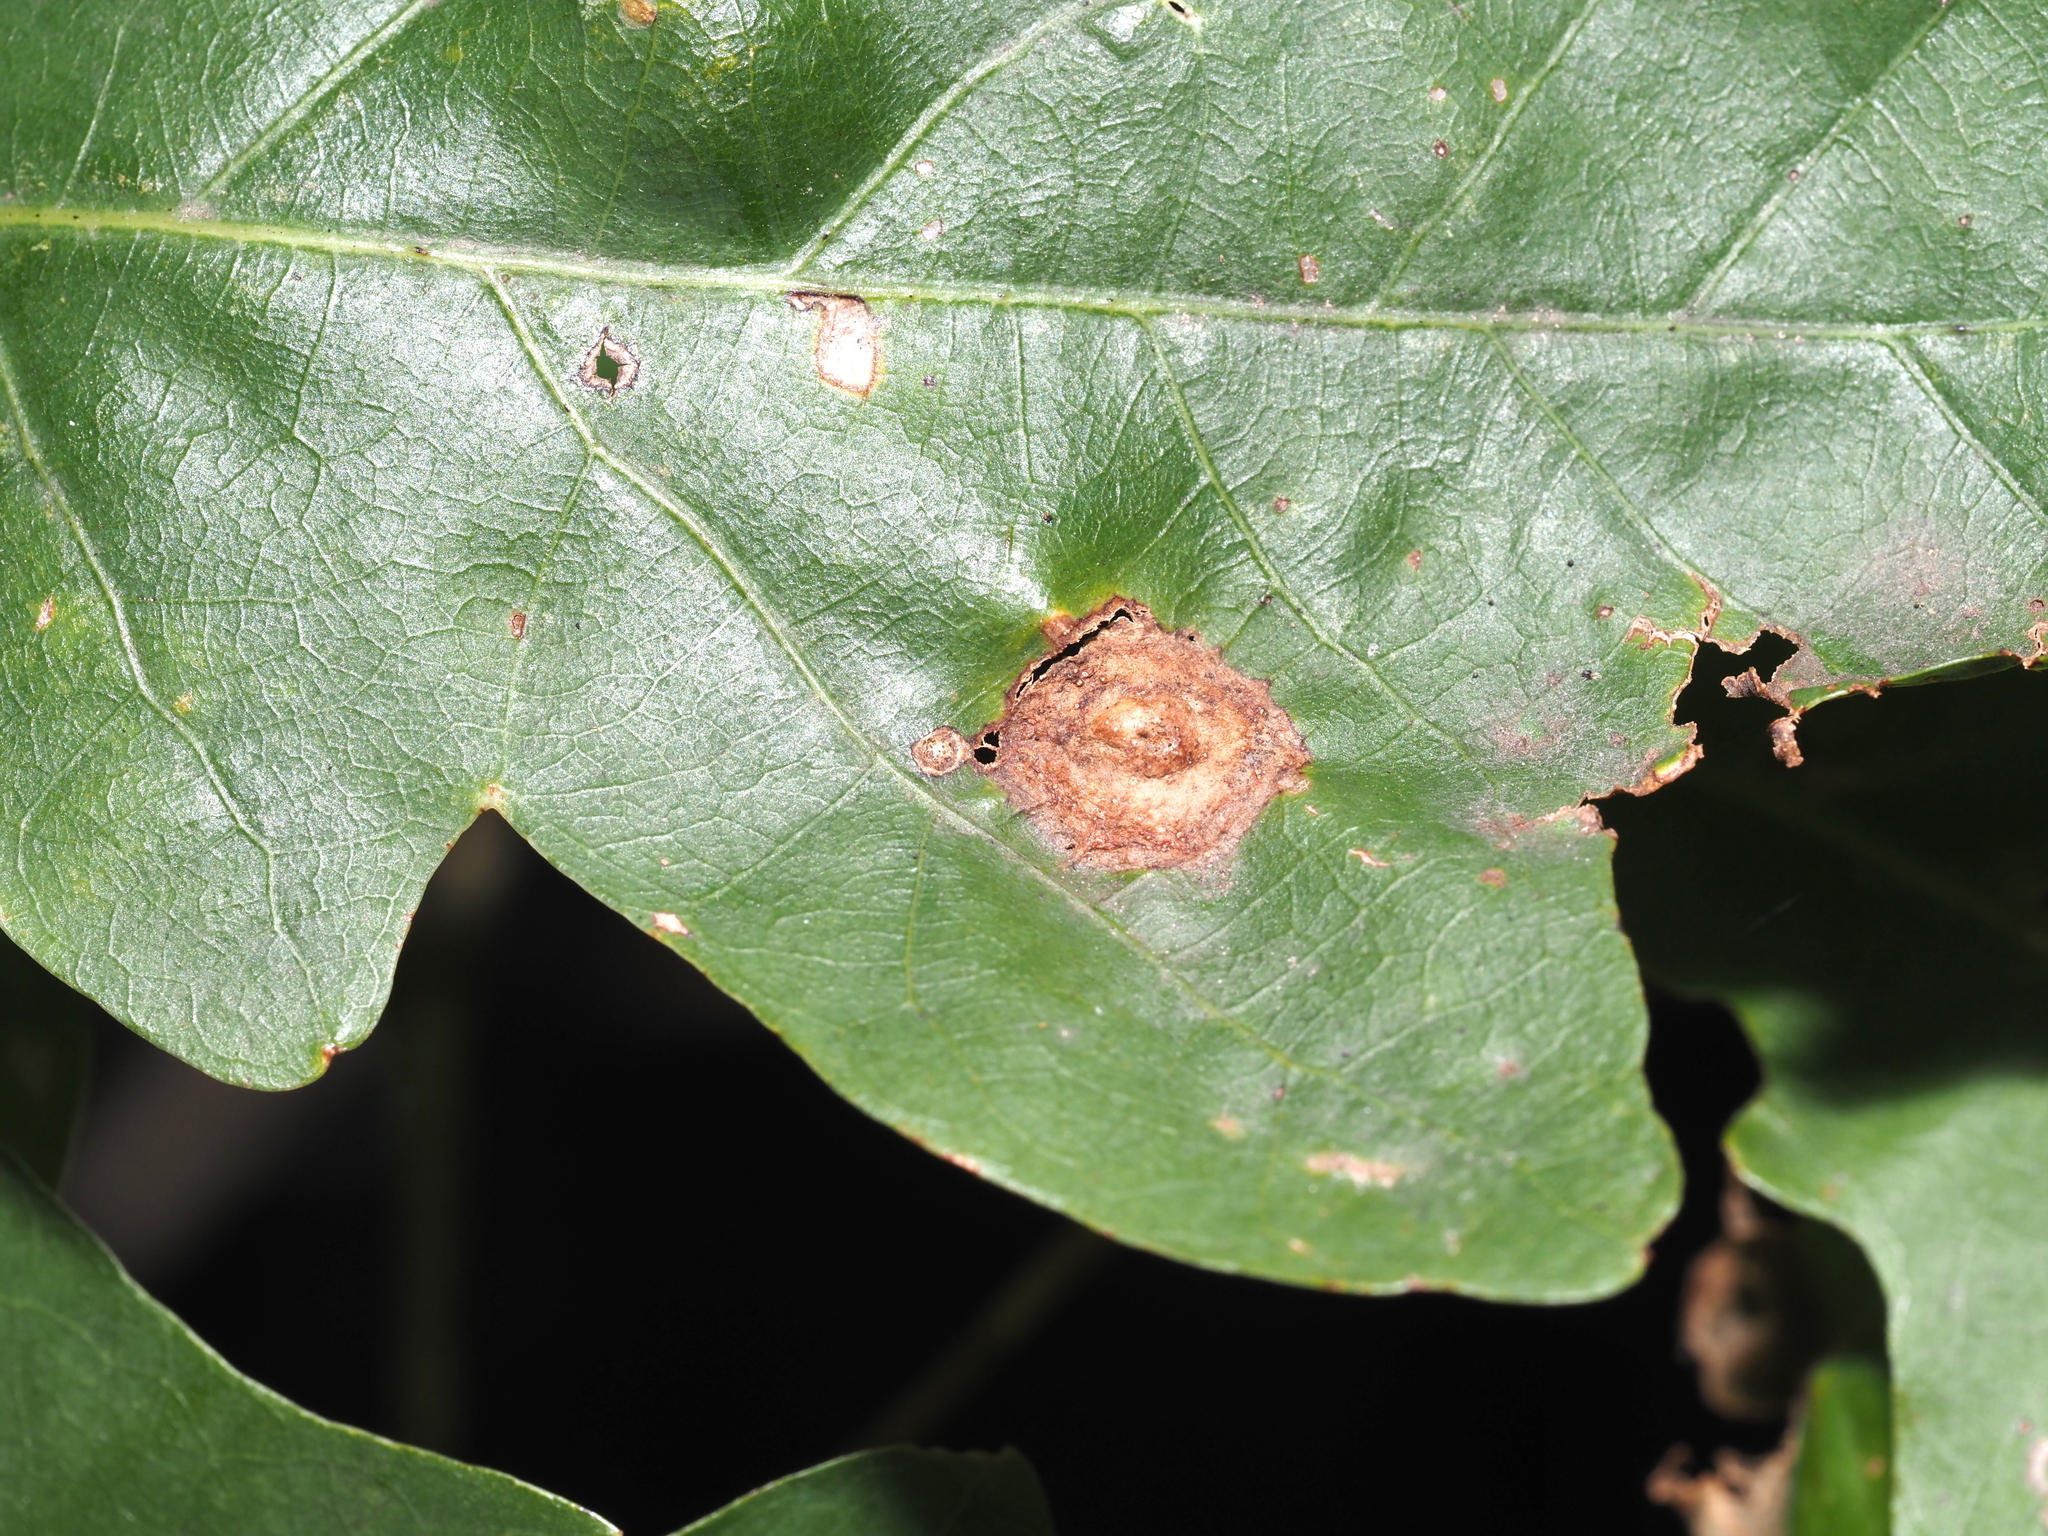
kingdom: Animalia
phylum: Arthropoda
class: Insecta
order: Hymenoptera
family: Cynipidae
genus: Callirhytis
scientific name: Callirhytis
